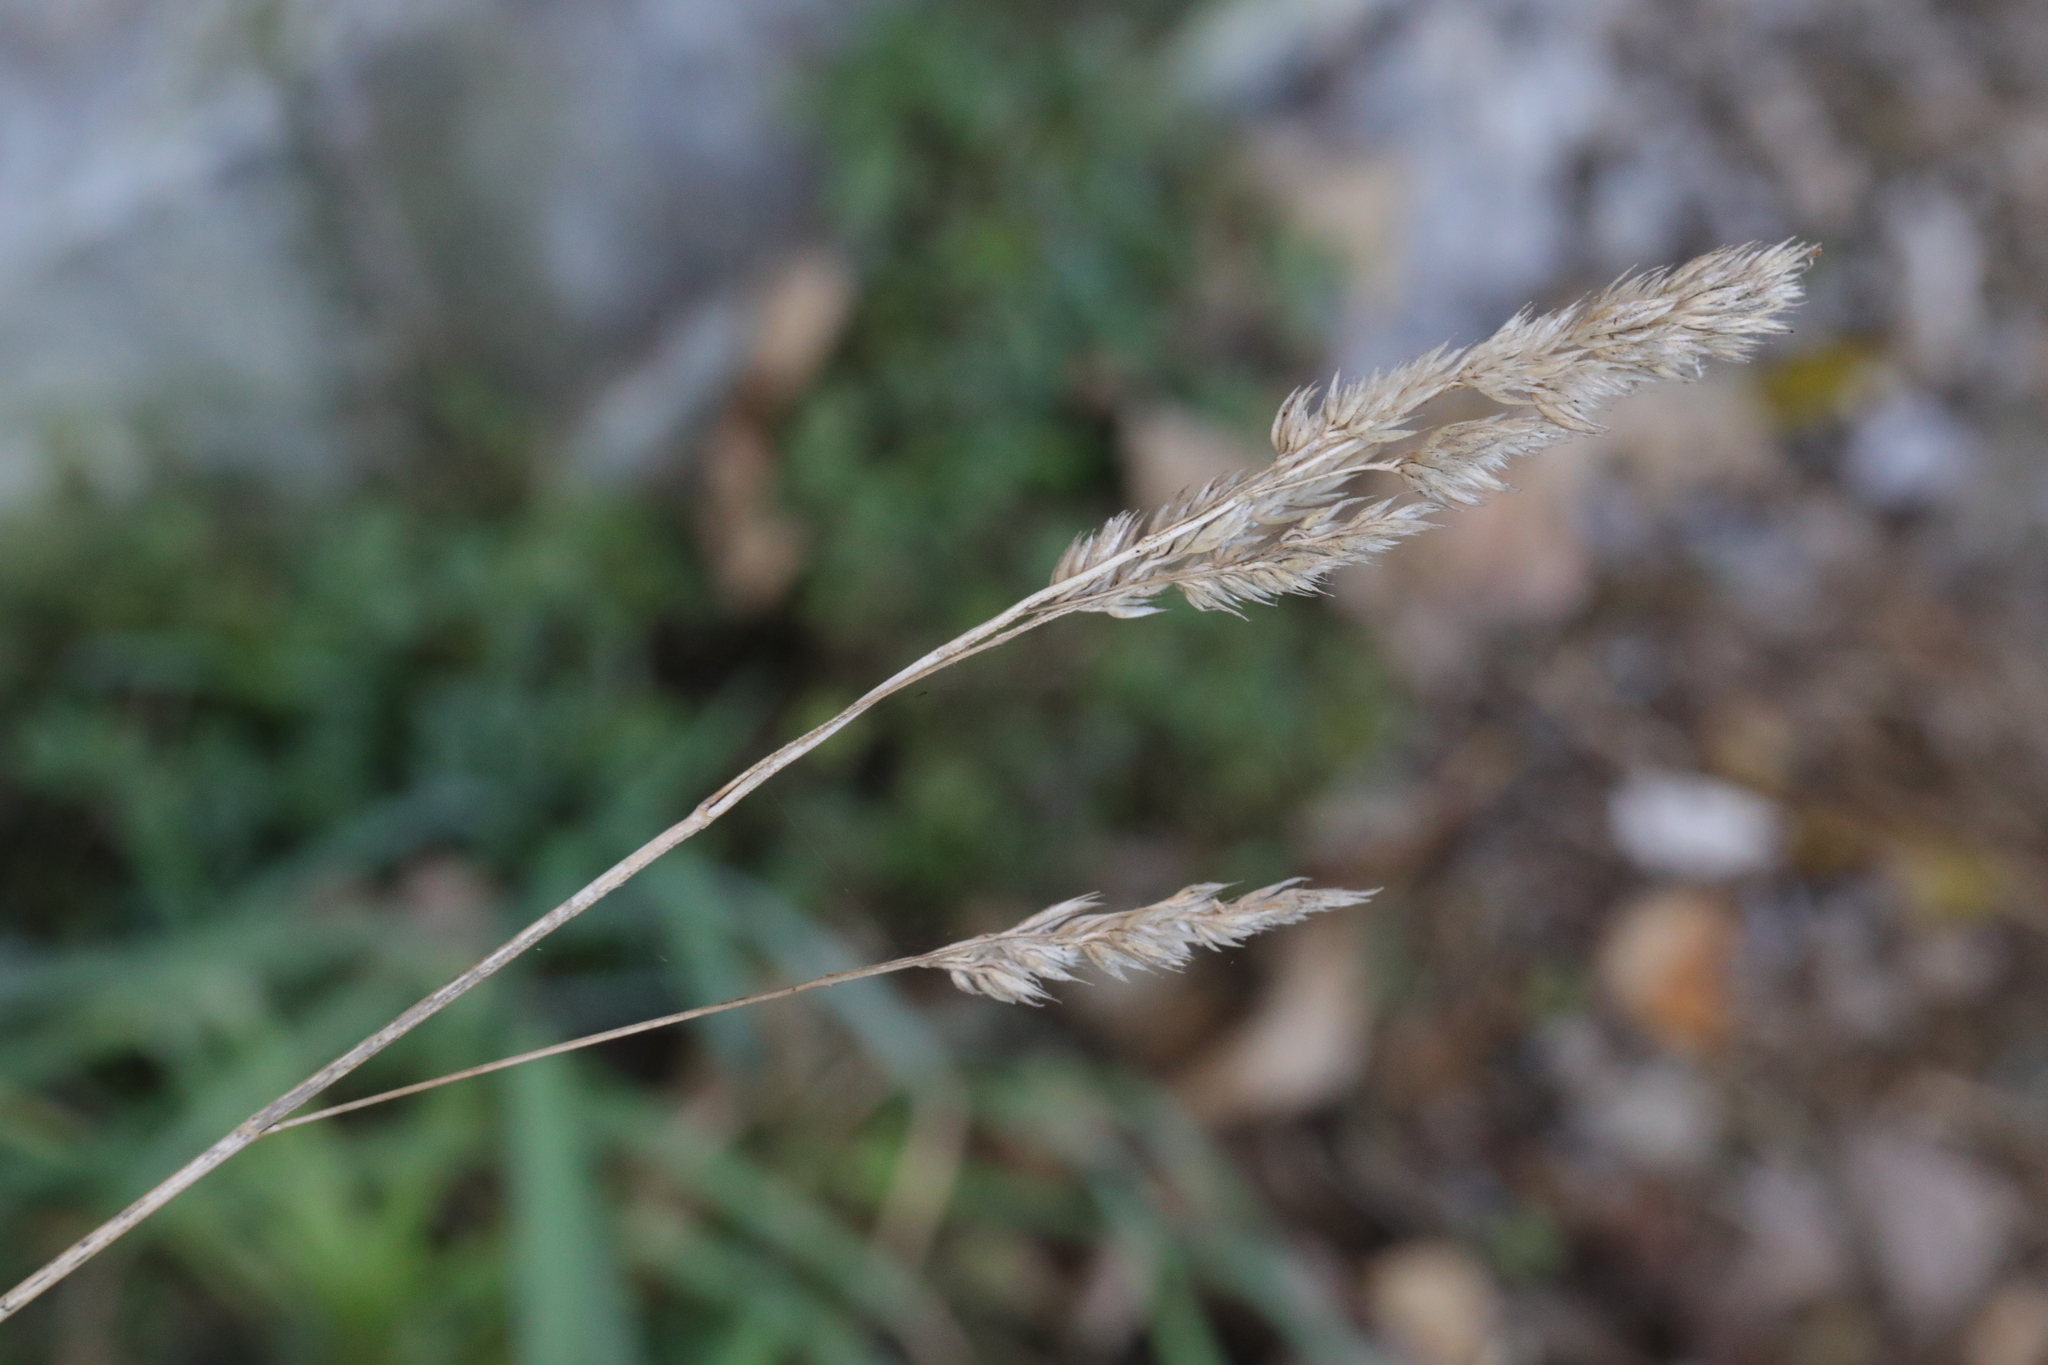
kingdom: Plantae
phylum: Tracheophyta
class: Liliopsida
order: Poales
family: Poaceae
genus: Dactylis
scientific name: Dactylis glomerata
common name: Orchardgrass
